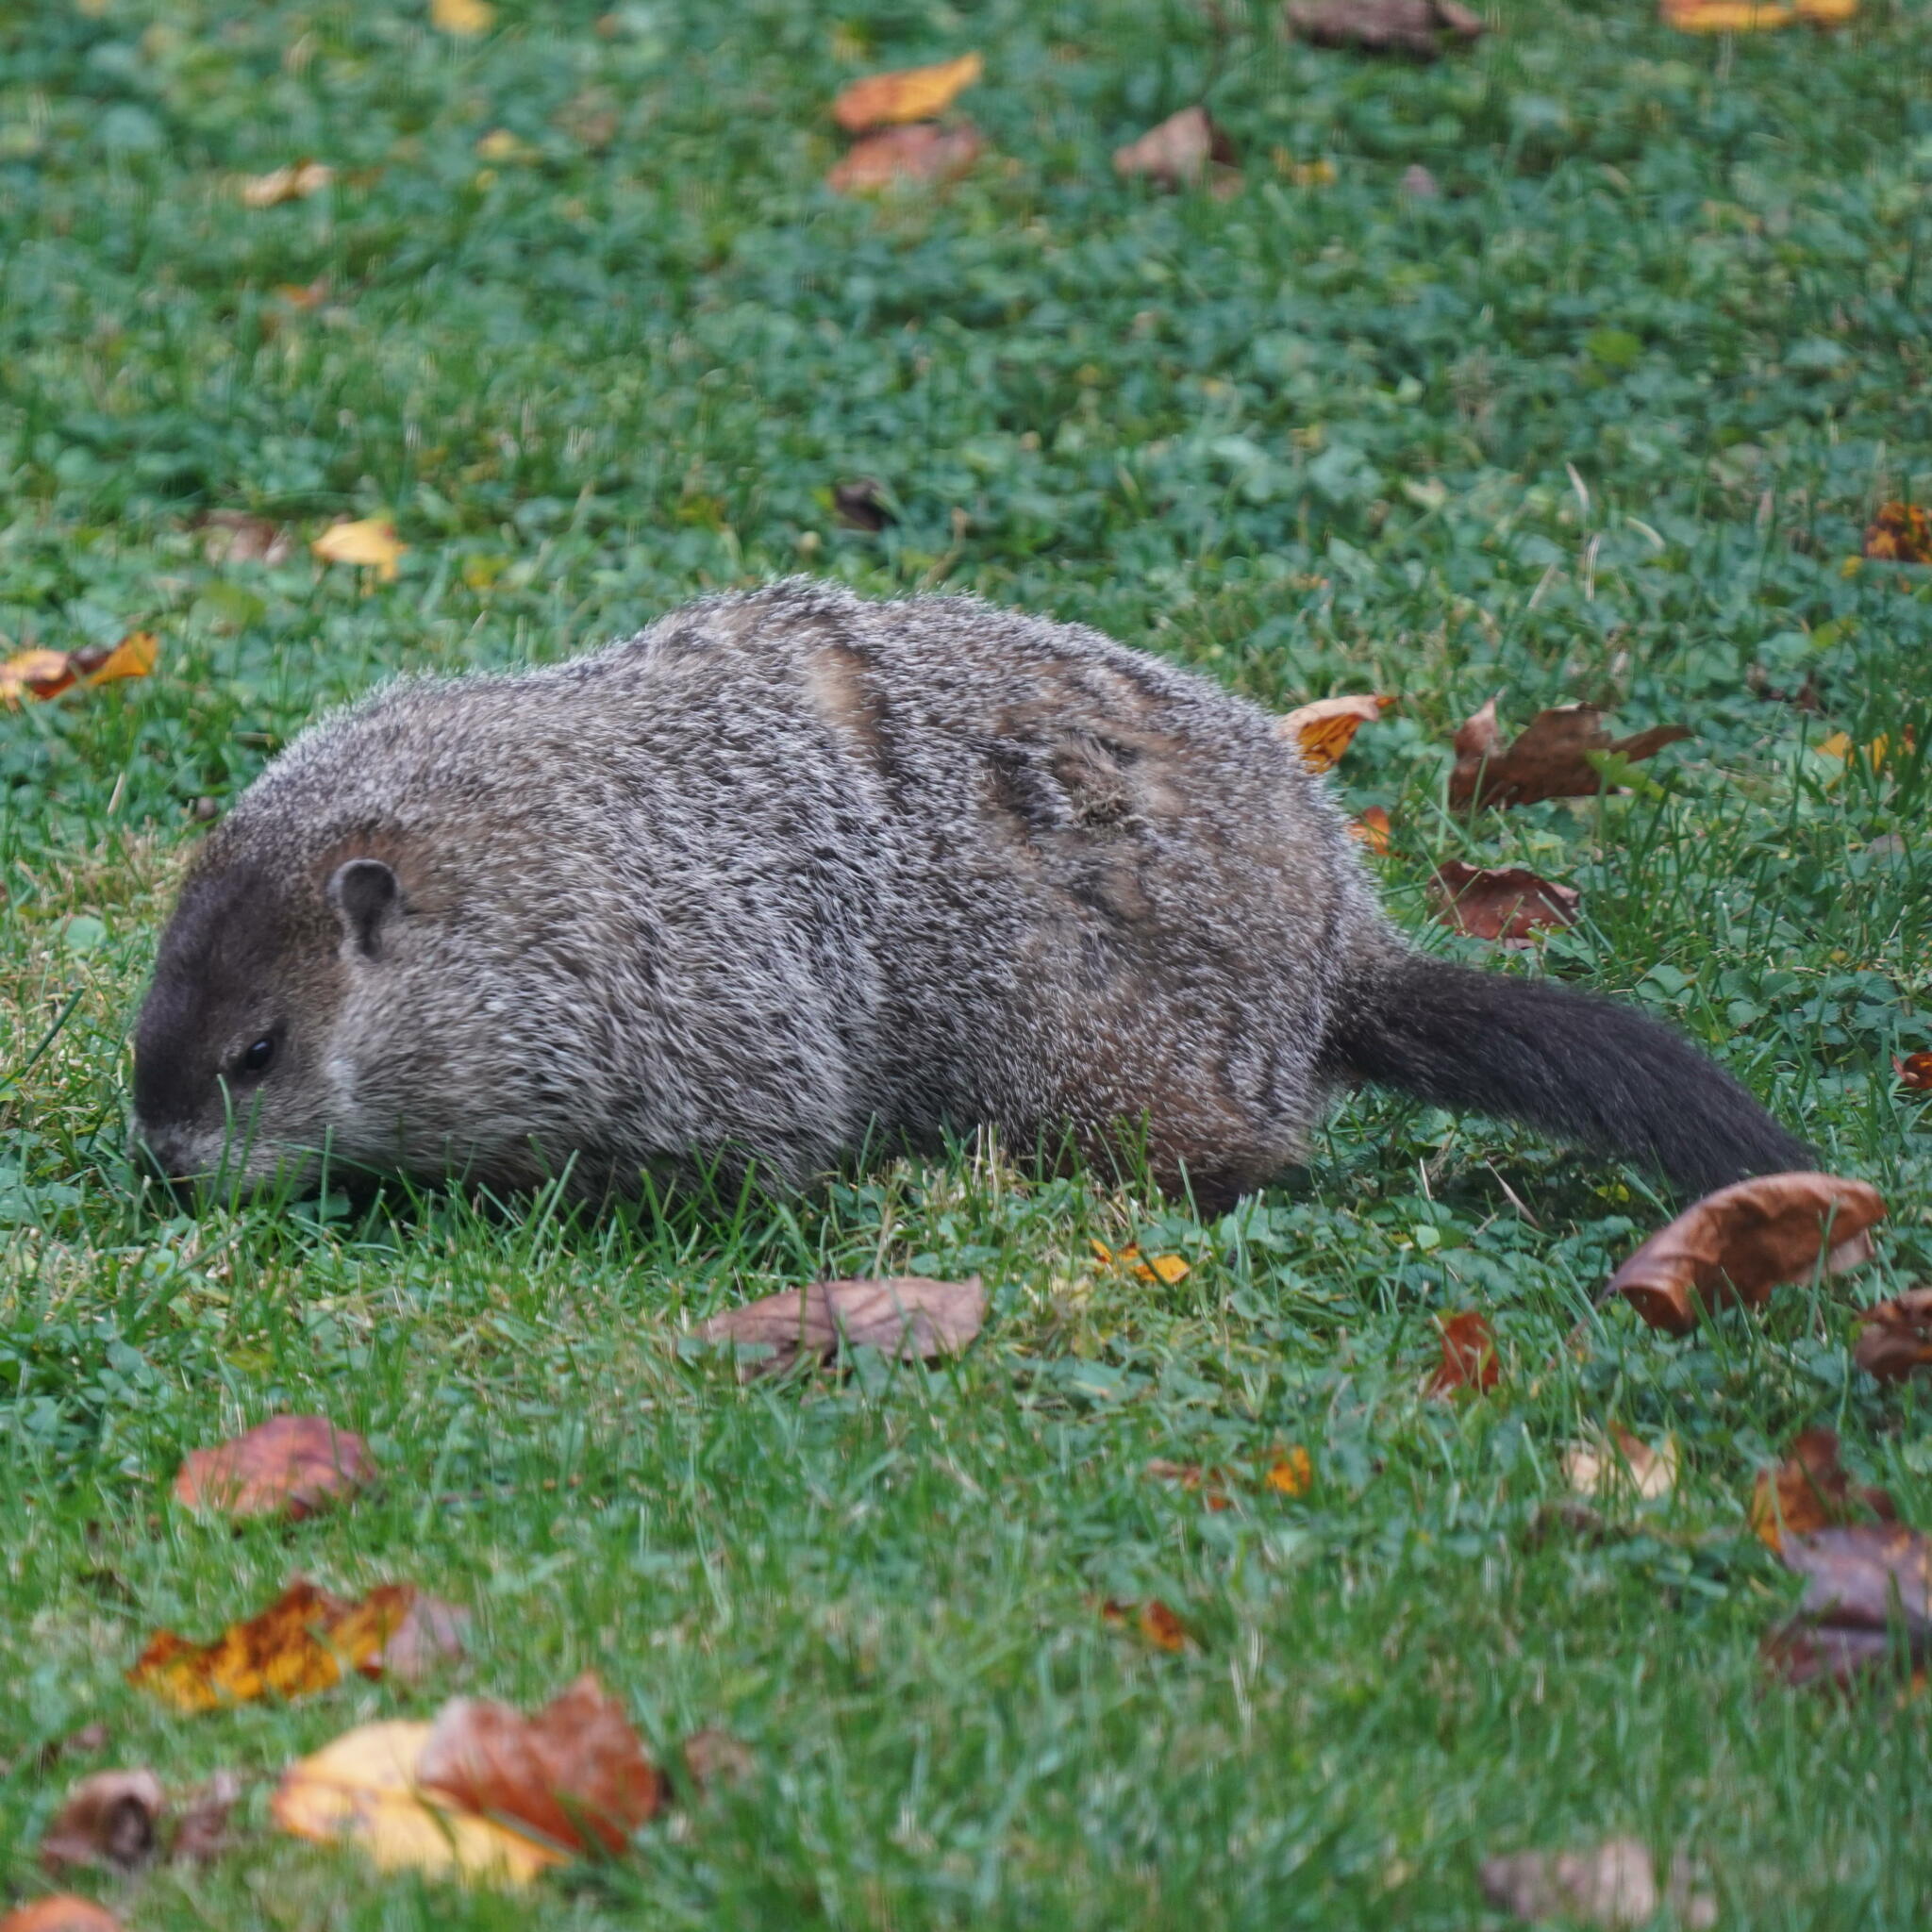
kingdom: Animalia
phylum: Chordata
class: Mammalia
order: Rodentia
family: Sciuridae
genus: Marmota
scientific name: Marmota monax
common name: Groundhog
